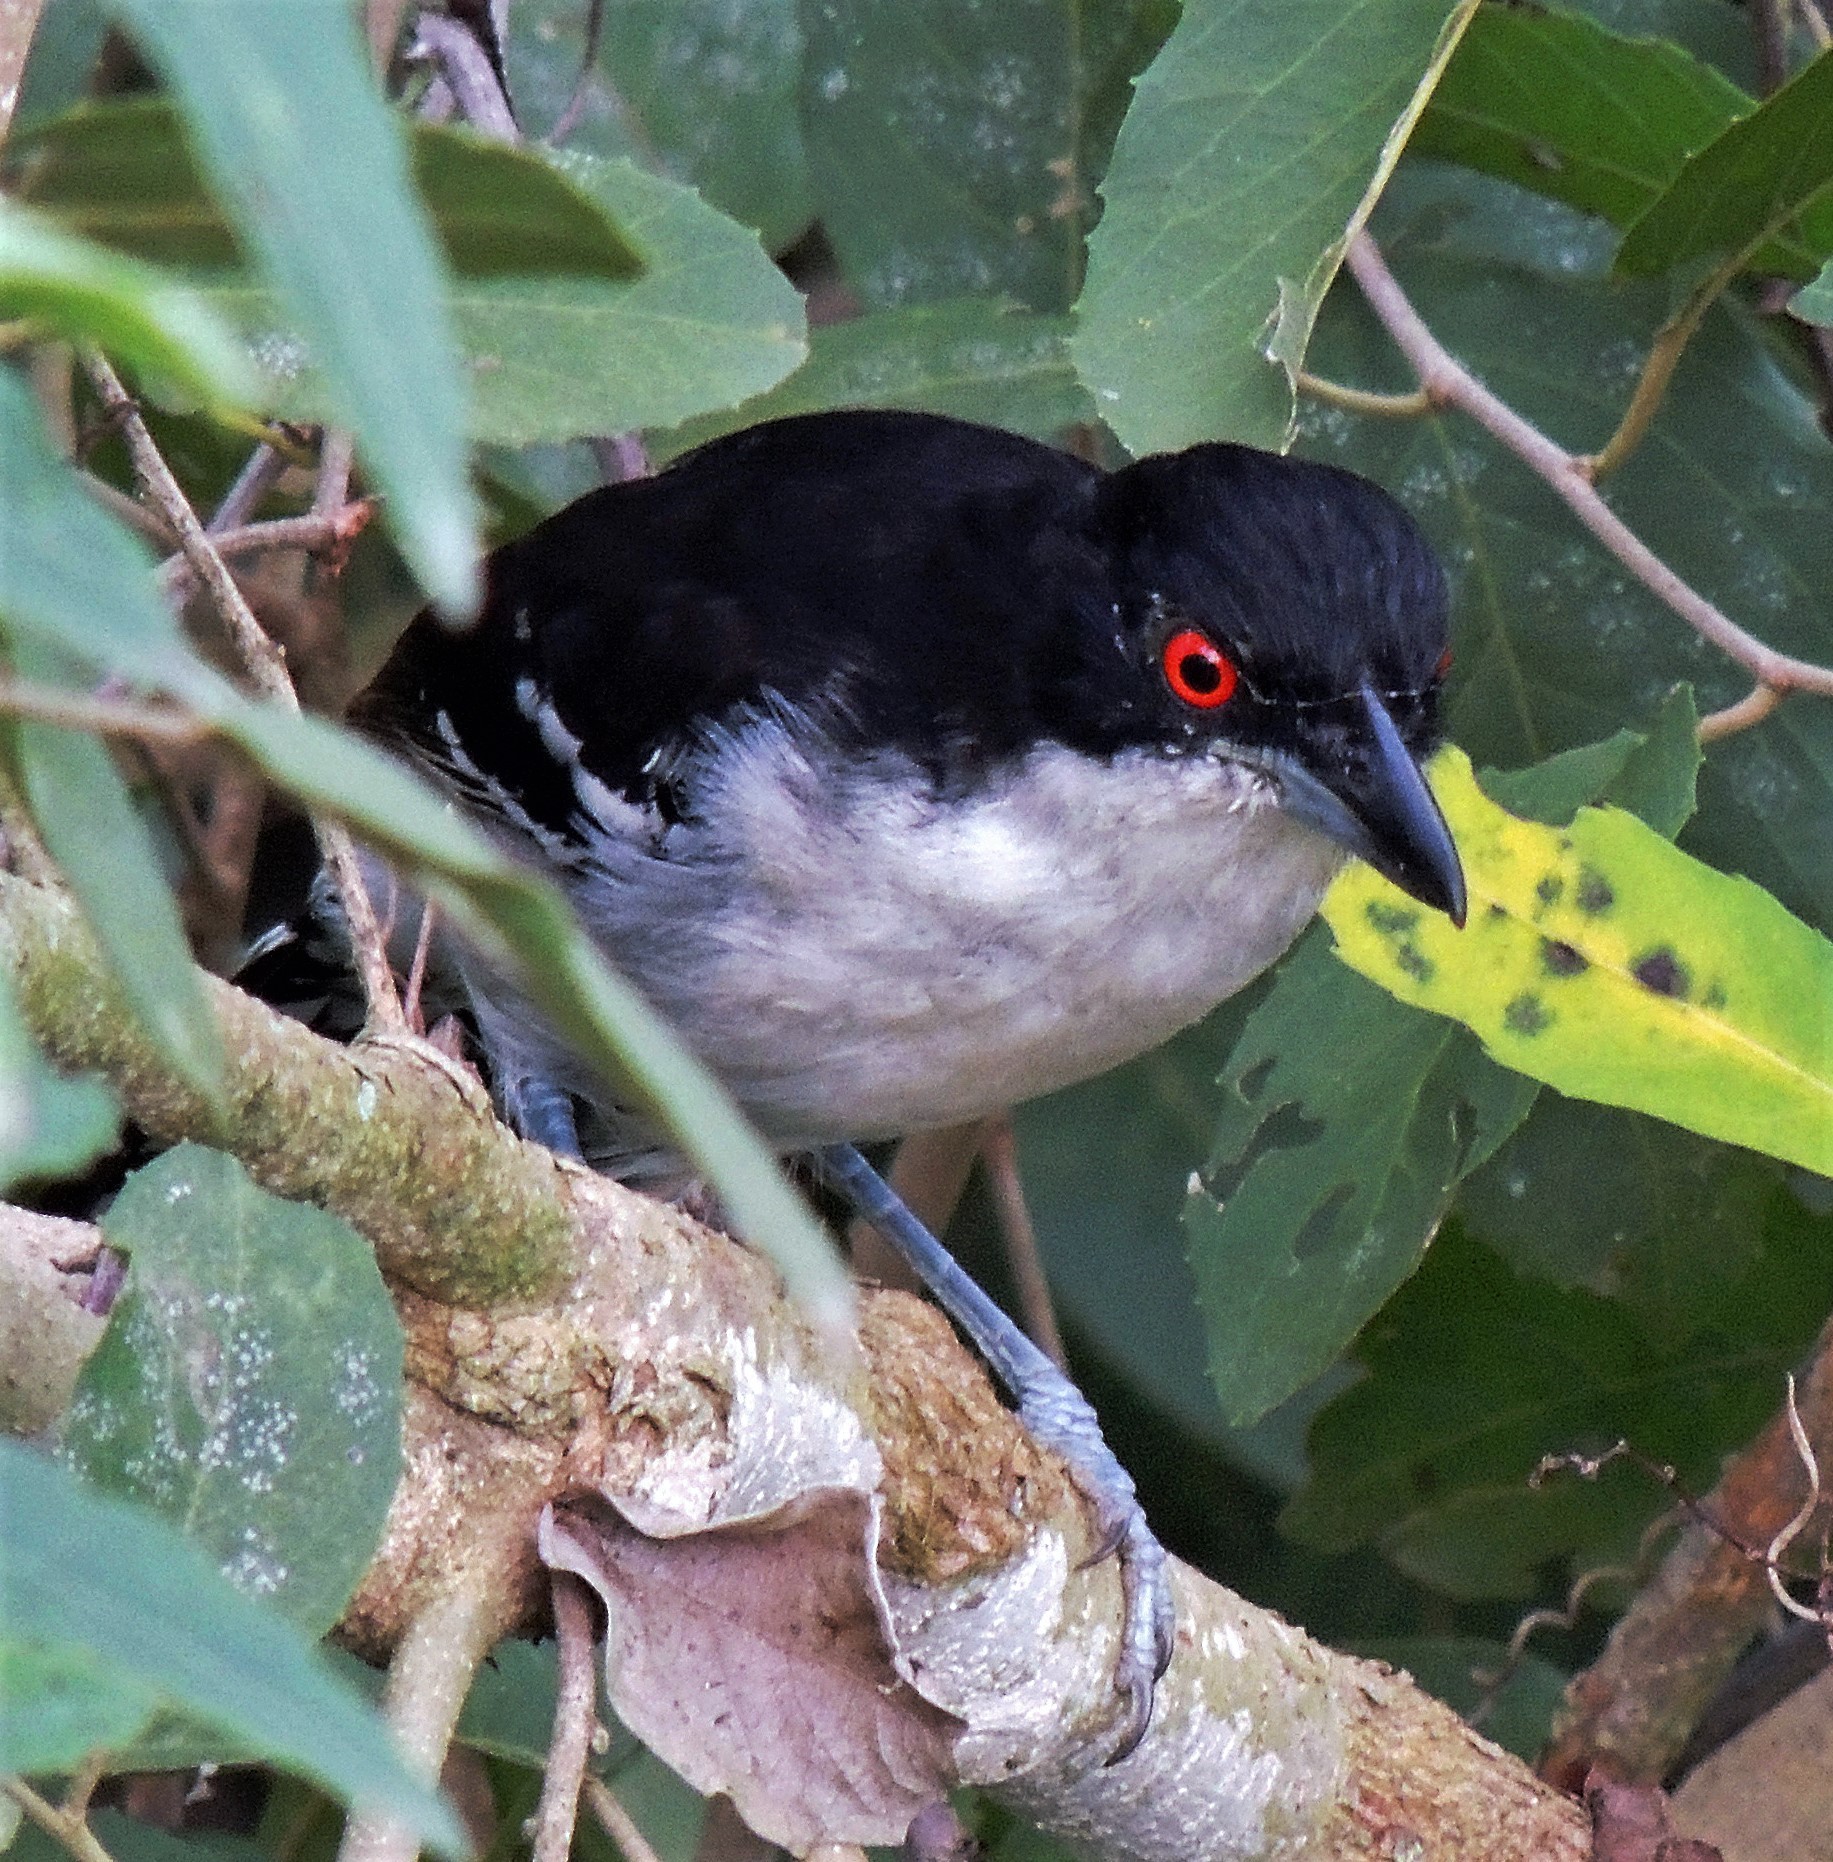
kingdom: Animalia
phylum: Chordata
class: Aves
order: Passeriformes
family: Thamnophilidae
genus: Taraba
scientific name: Taraba major
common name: Great antshrike
